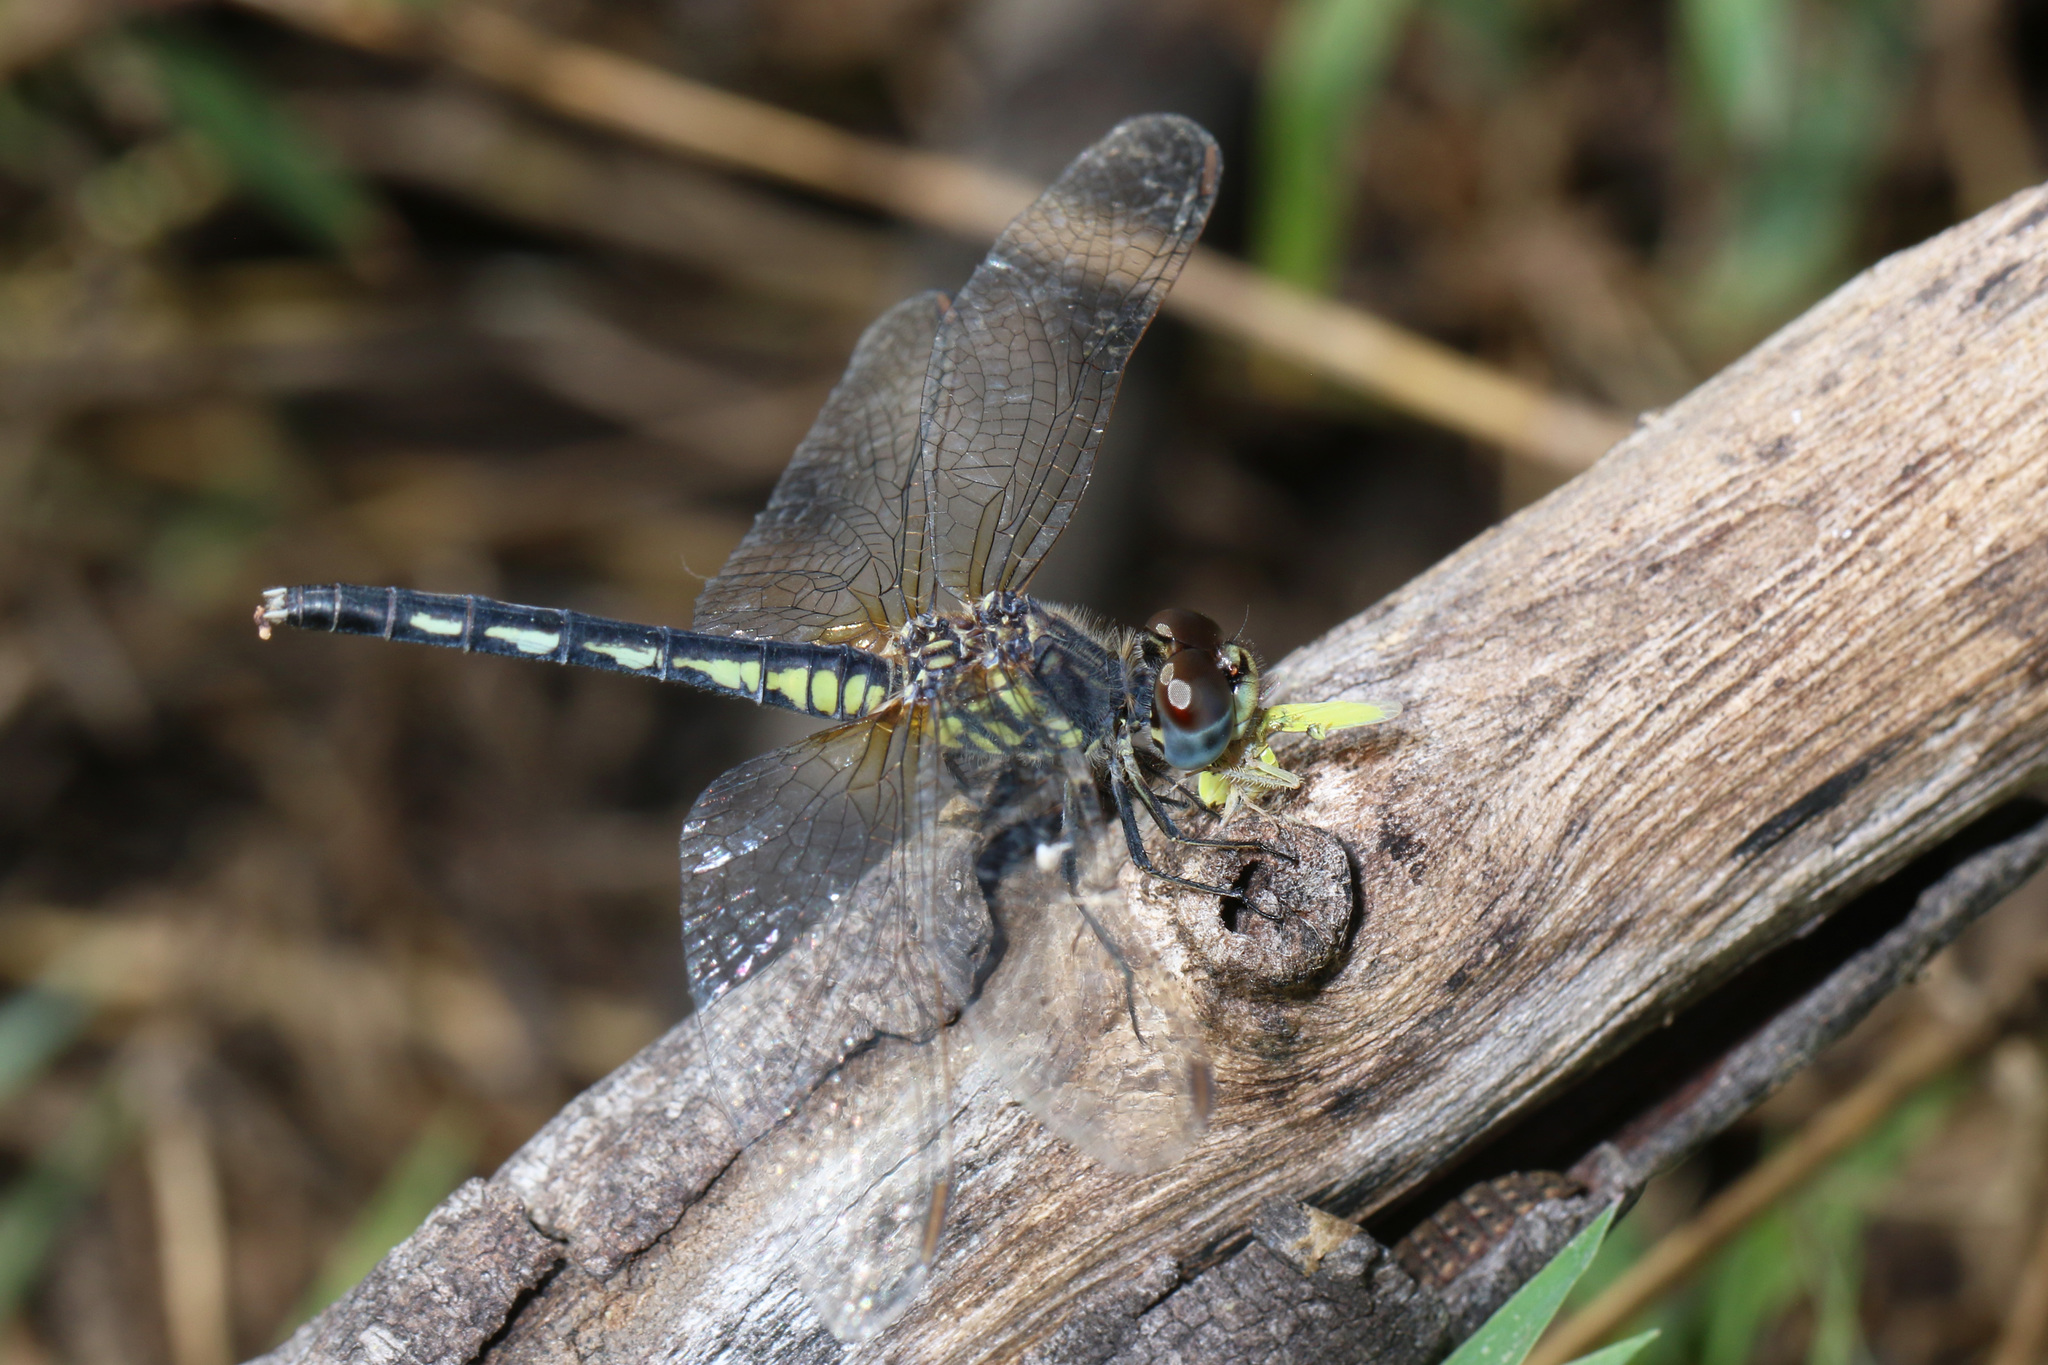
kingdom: Animalia
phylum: Arthropoda
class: Insecta
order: Odonata
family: Libellulidae
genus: Diplacodes
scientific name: Diplacodes lefebvrii
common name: Black percher
